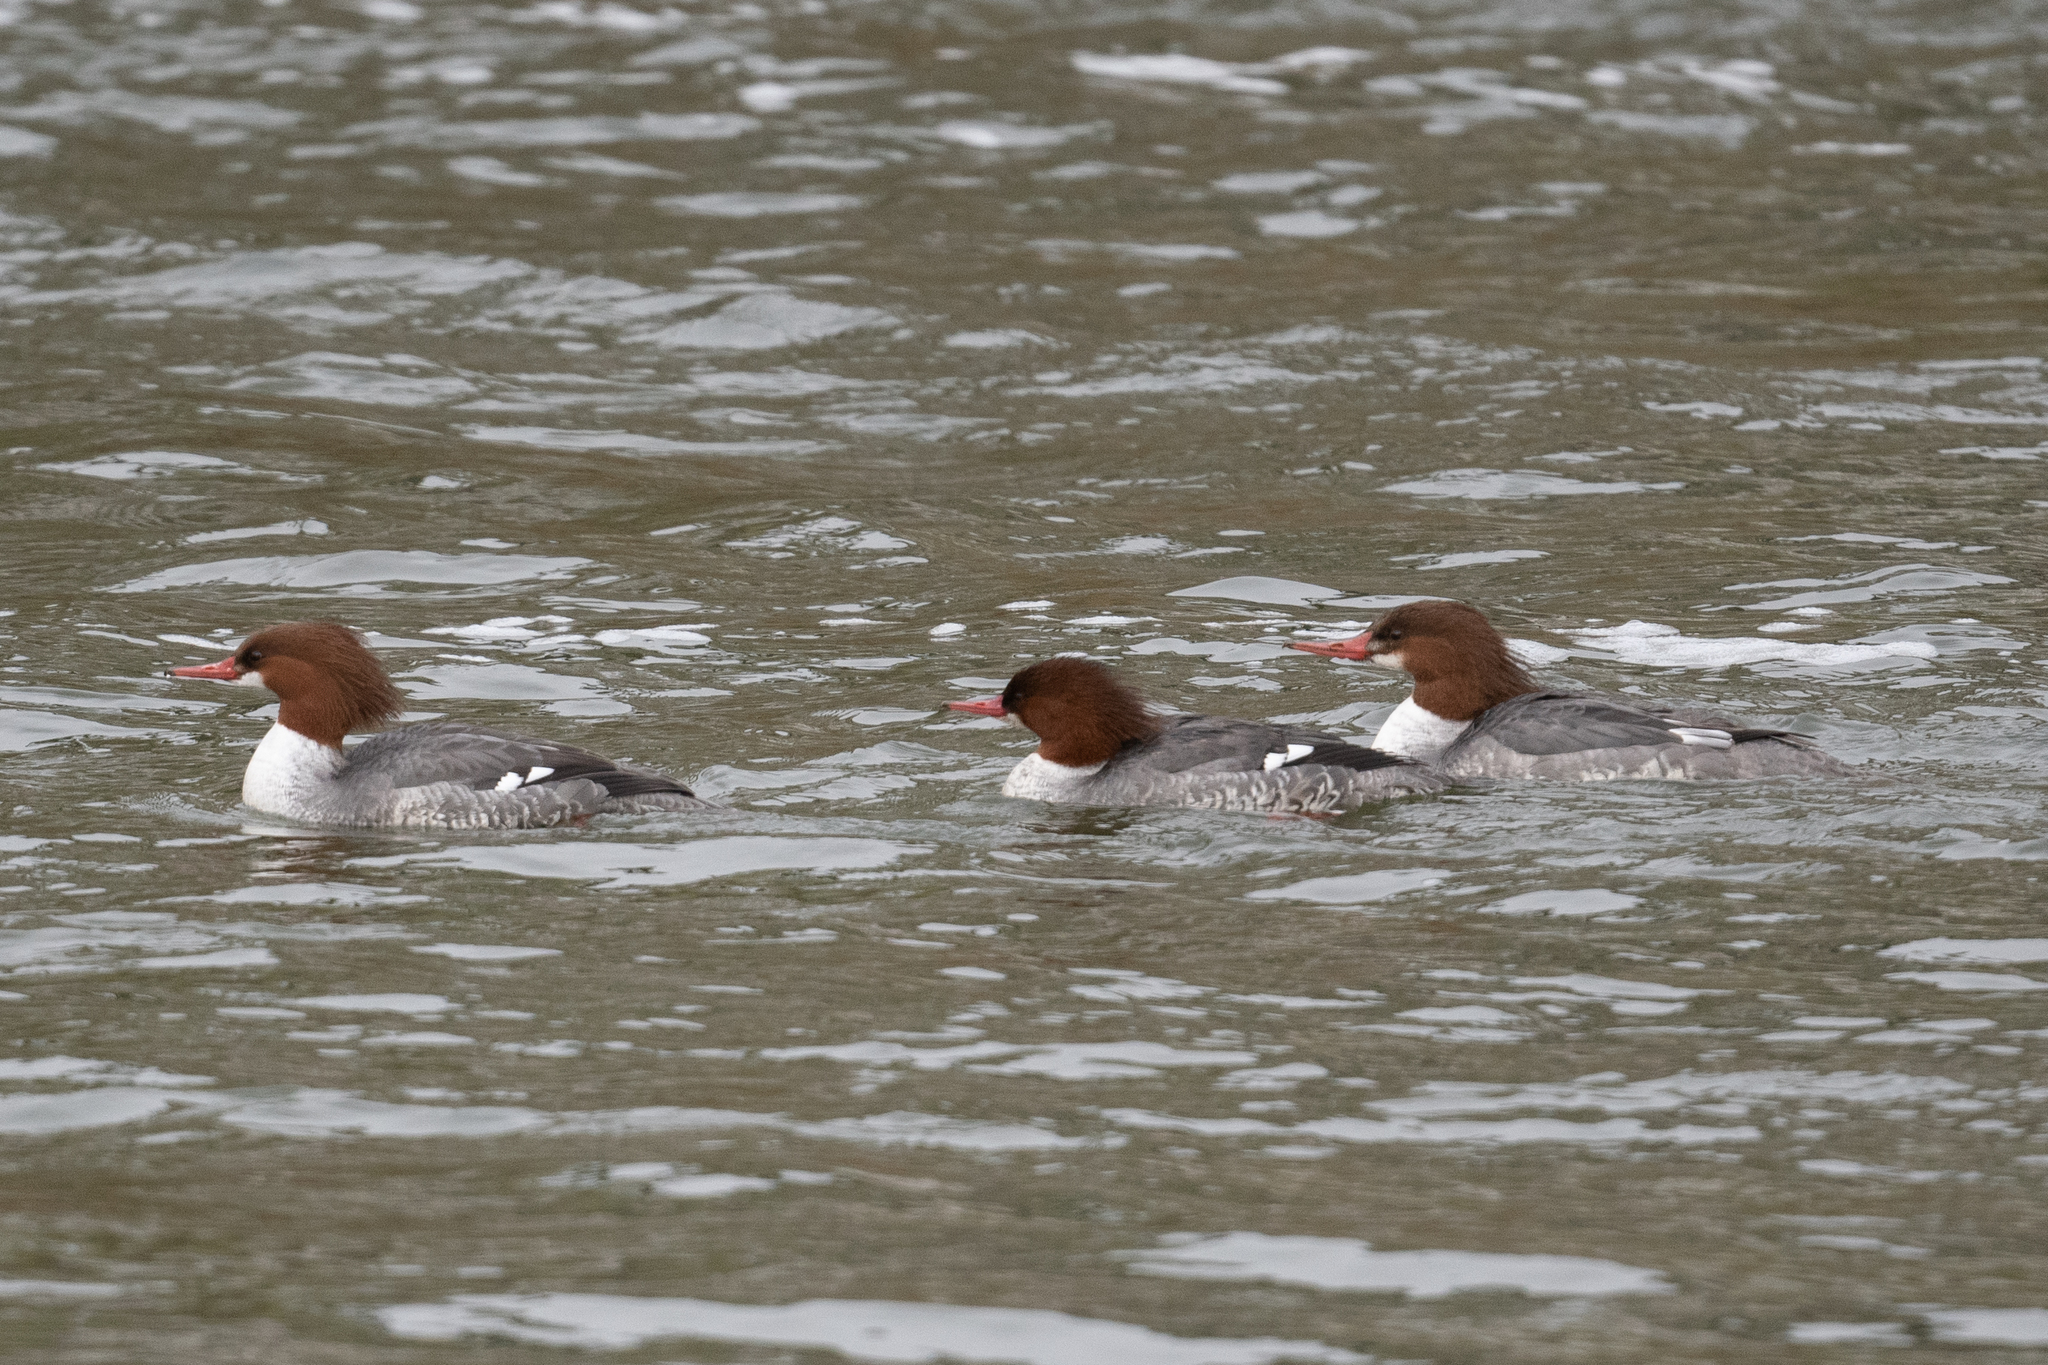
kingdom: Animalia
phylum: Chordata
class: Aves
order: Anseriformes
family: Anatidae
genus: Mergus
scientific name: Mergus merganser
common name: Common merganser
